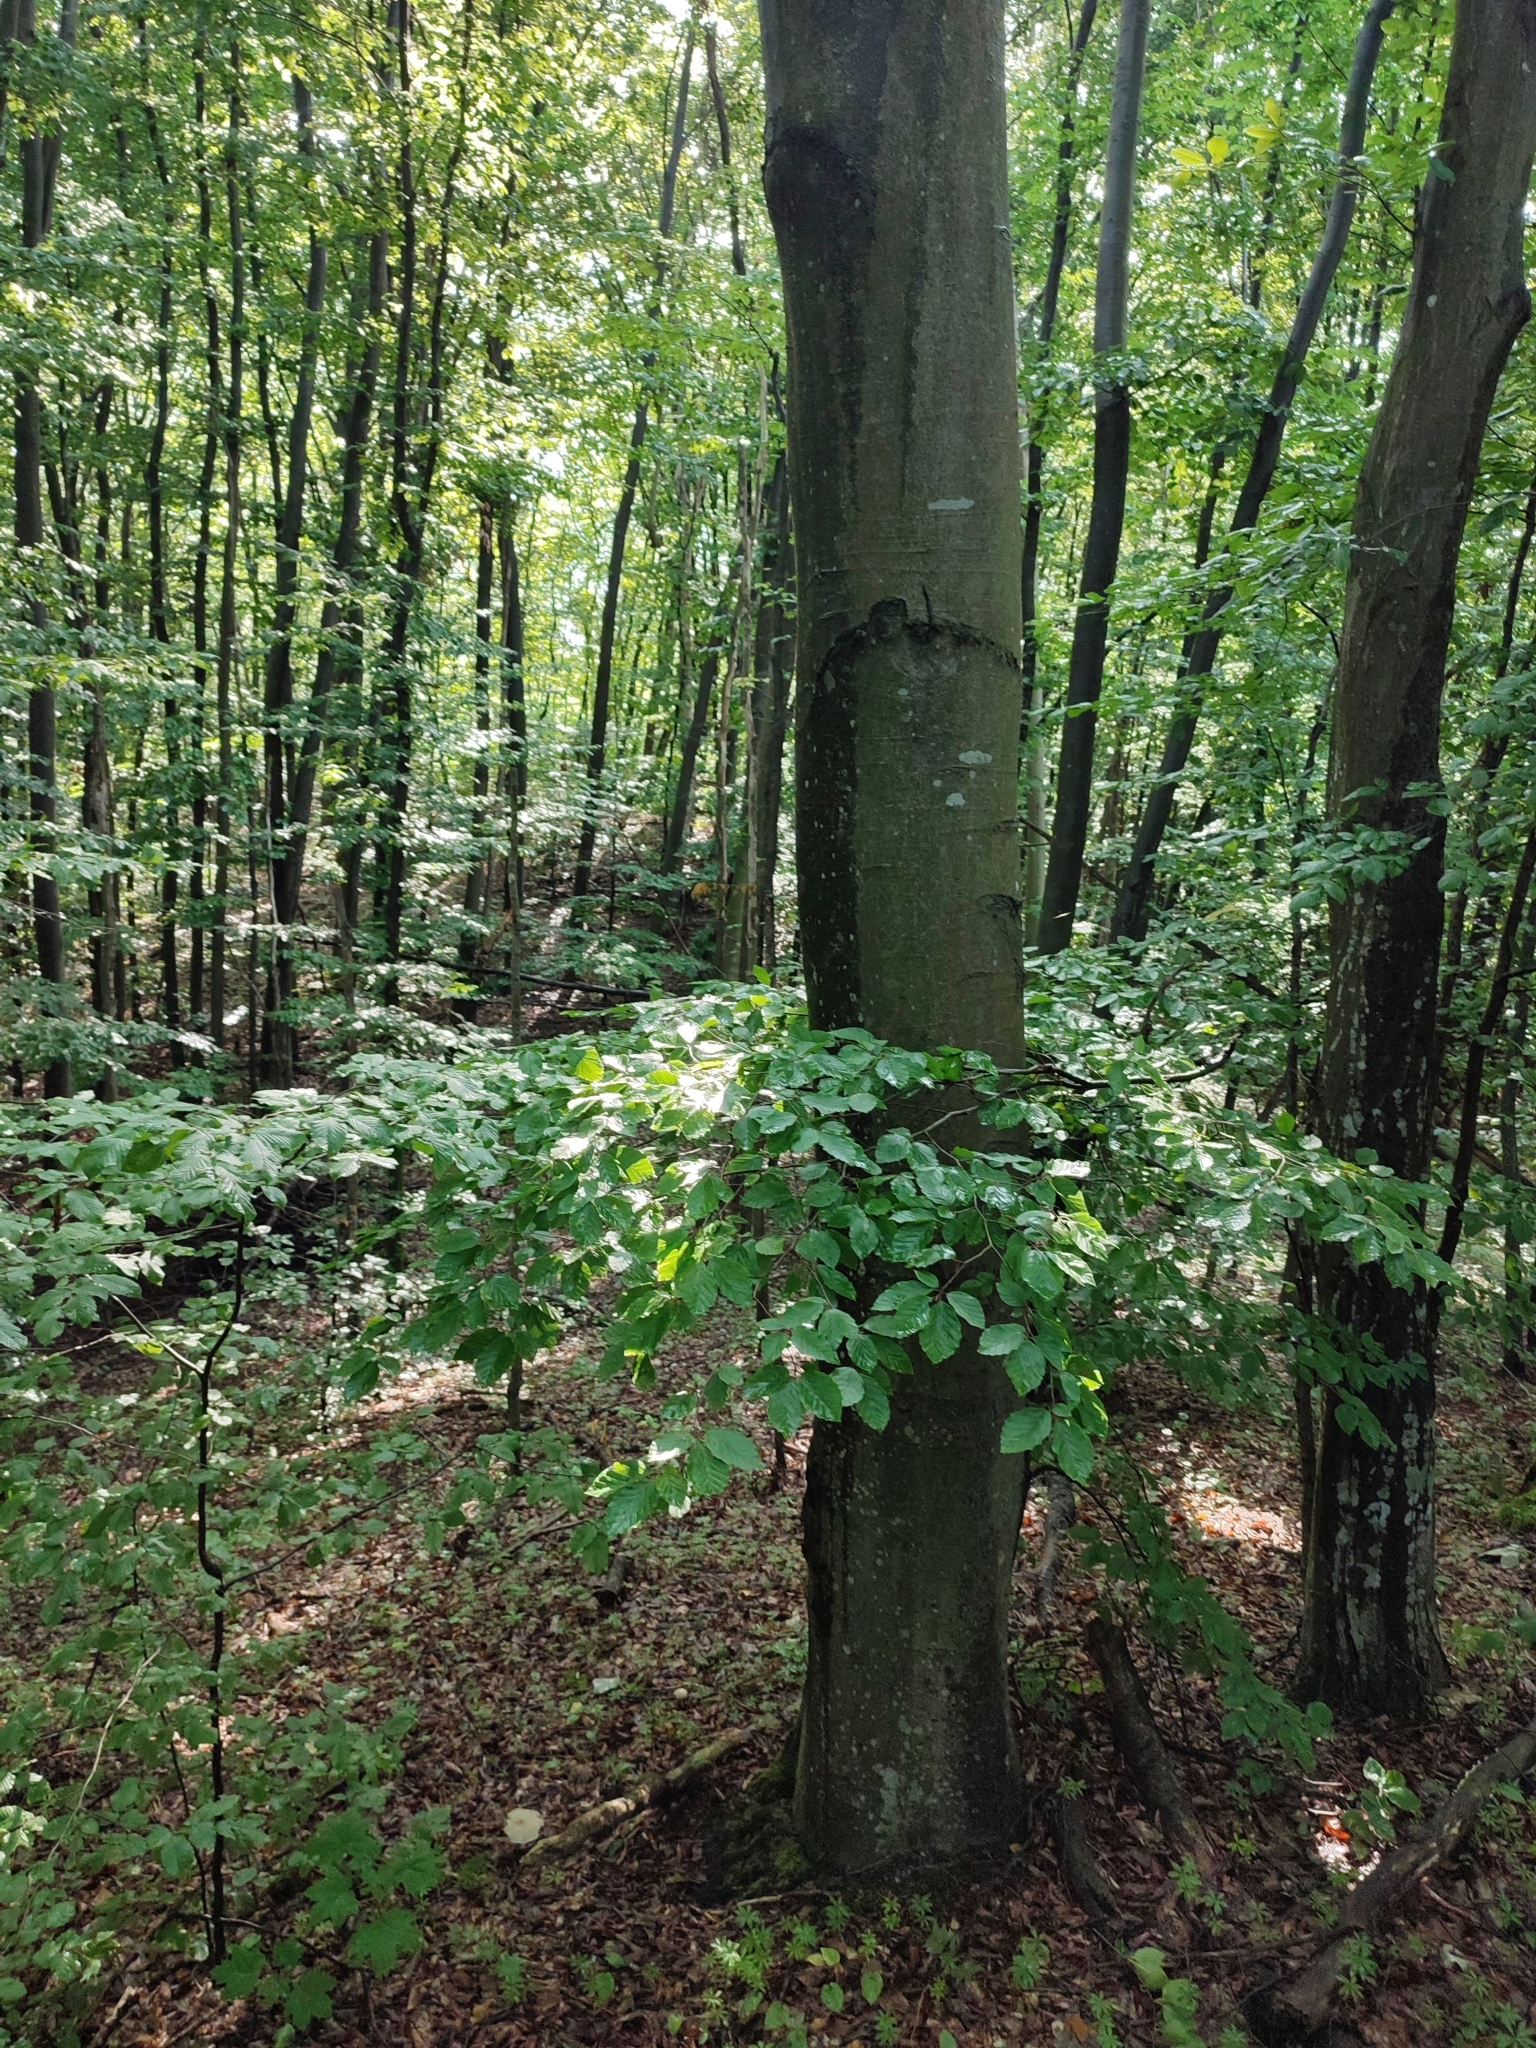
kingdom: Plantae
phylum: Tracheophyta
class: Magnoliopsida
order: Fagales
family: Fagaceae
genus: Fagus
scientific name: Fagus sylvatica
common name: Beech
